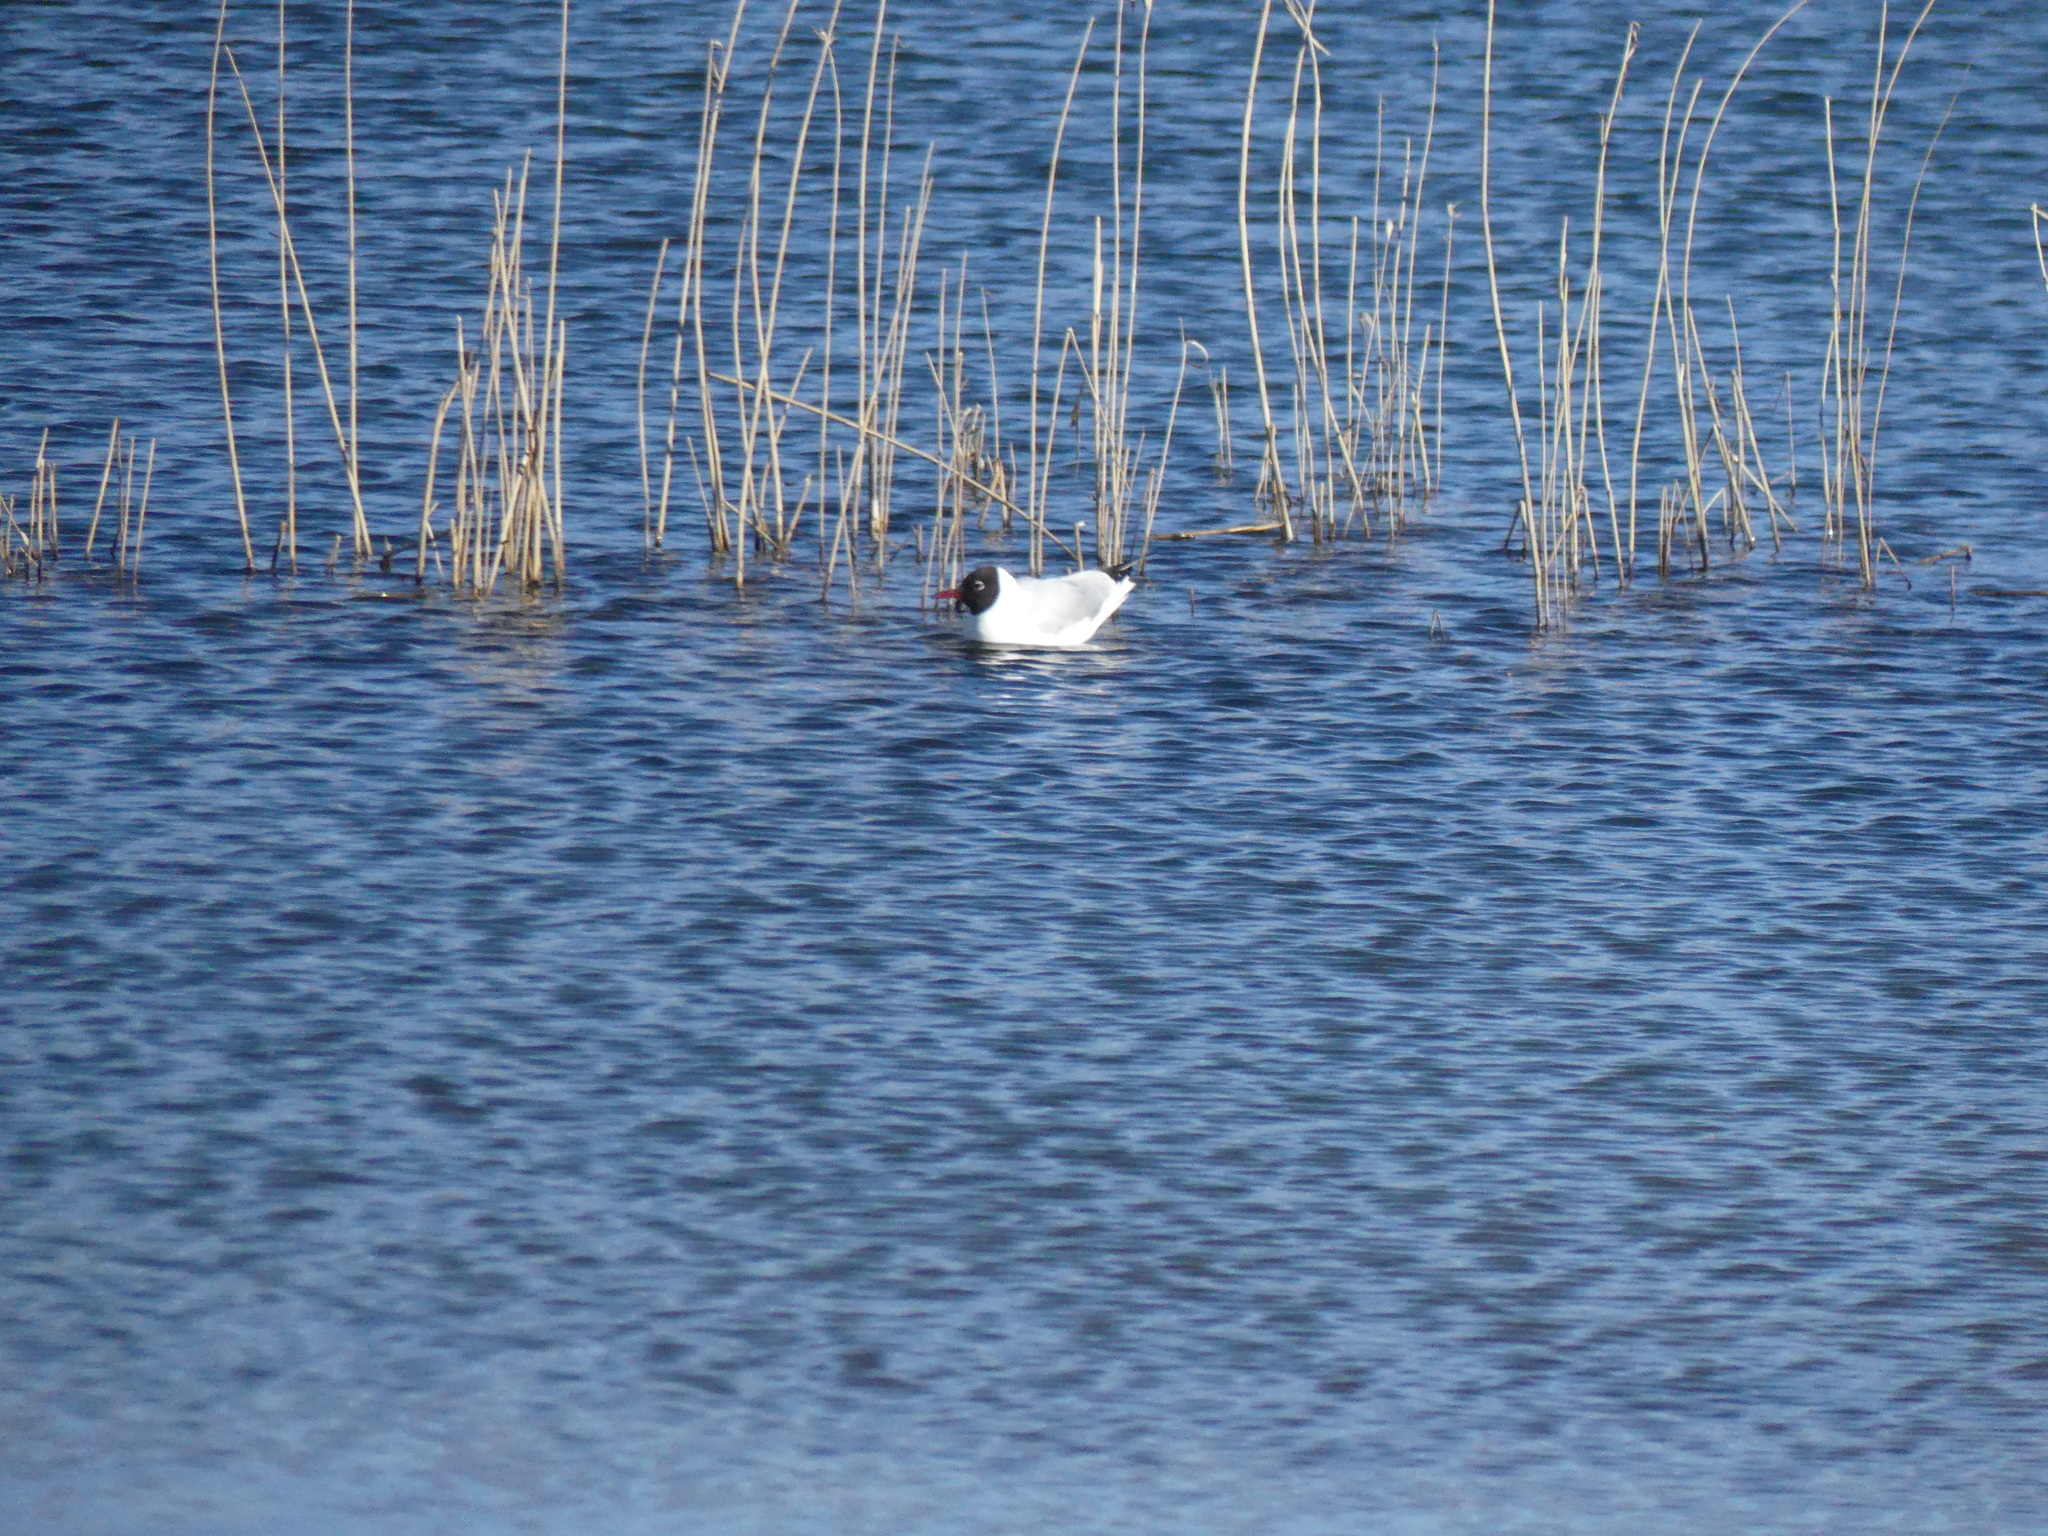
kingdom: Animalia
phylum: Chordata
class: Aves
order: Charadriiformes
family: Laridae
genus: Chroicocephalus
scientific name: Chroicocephalus ridibundus
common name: Black-headed gull
